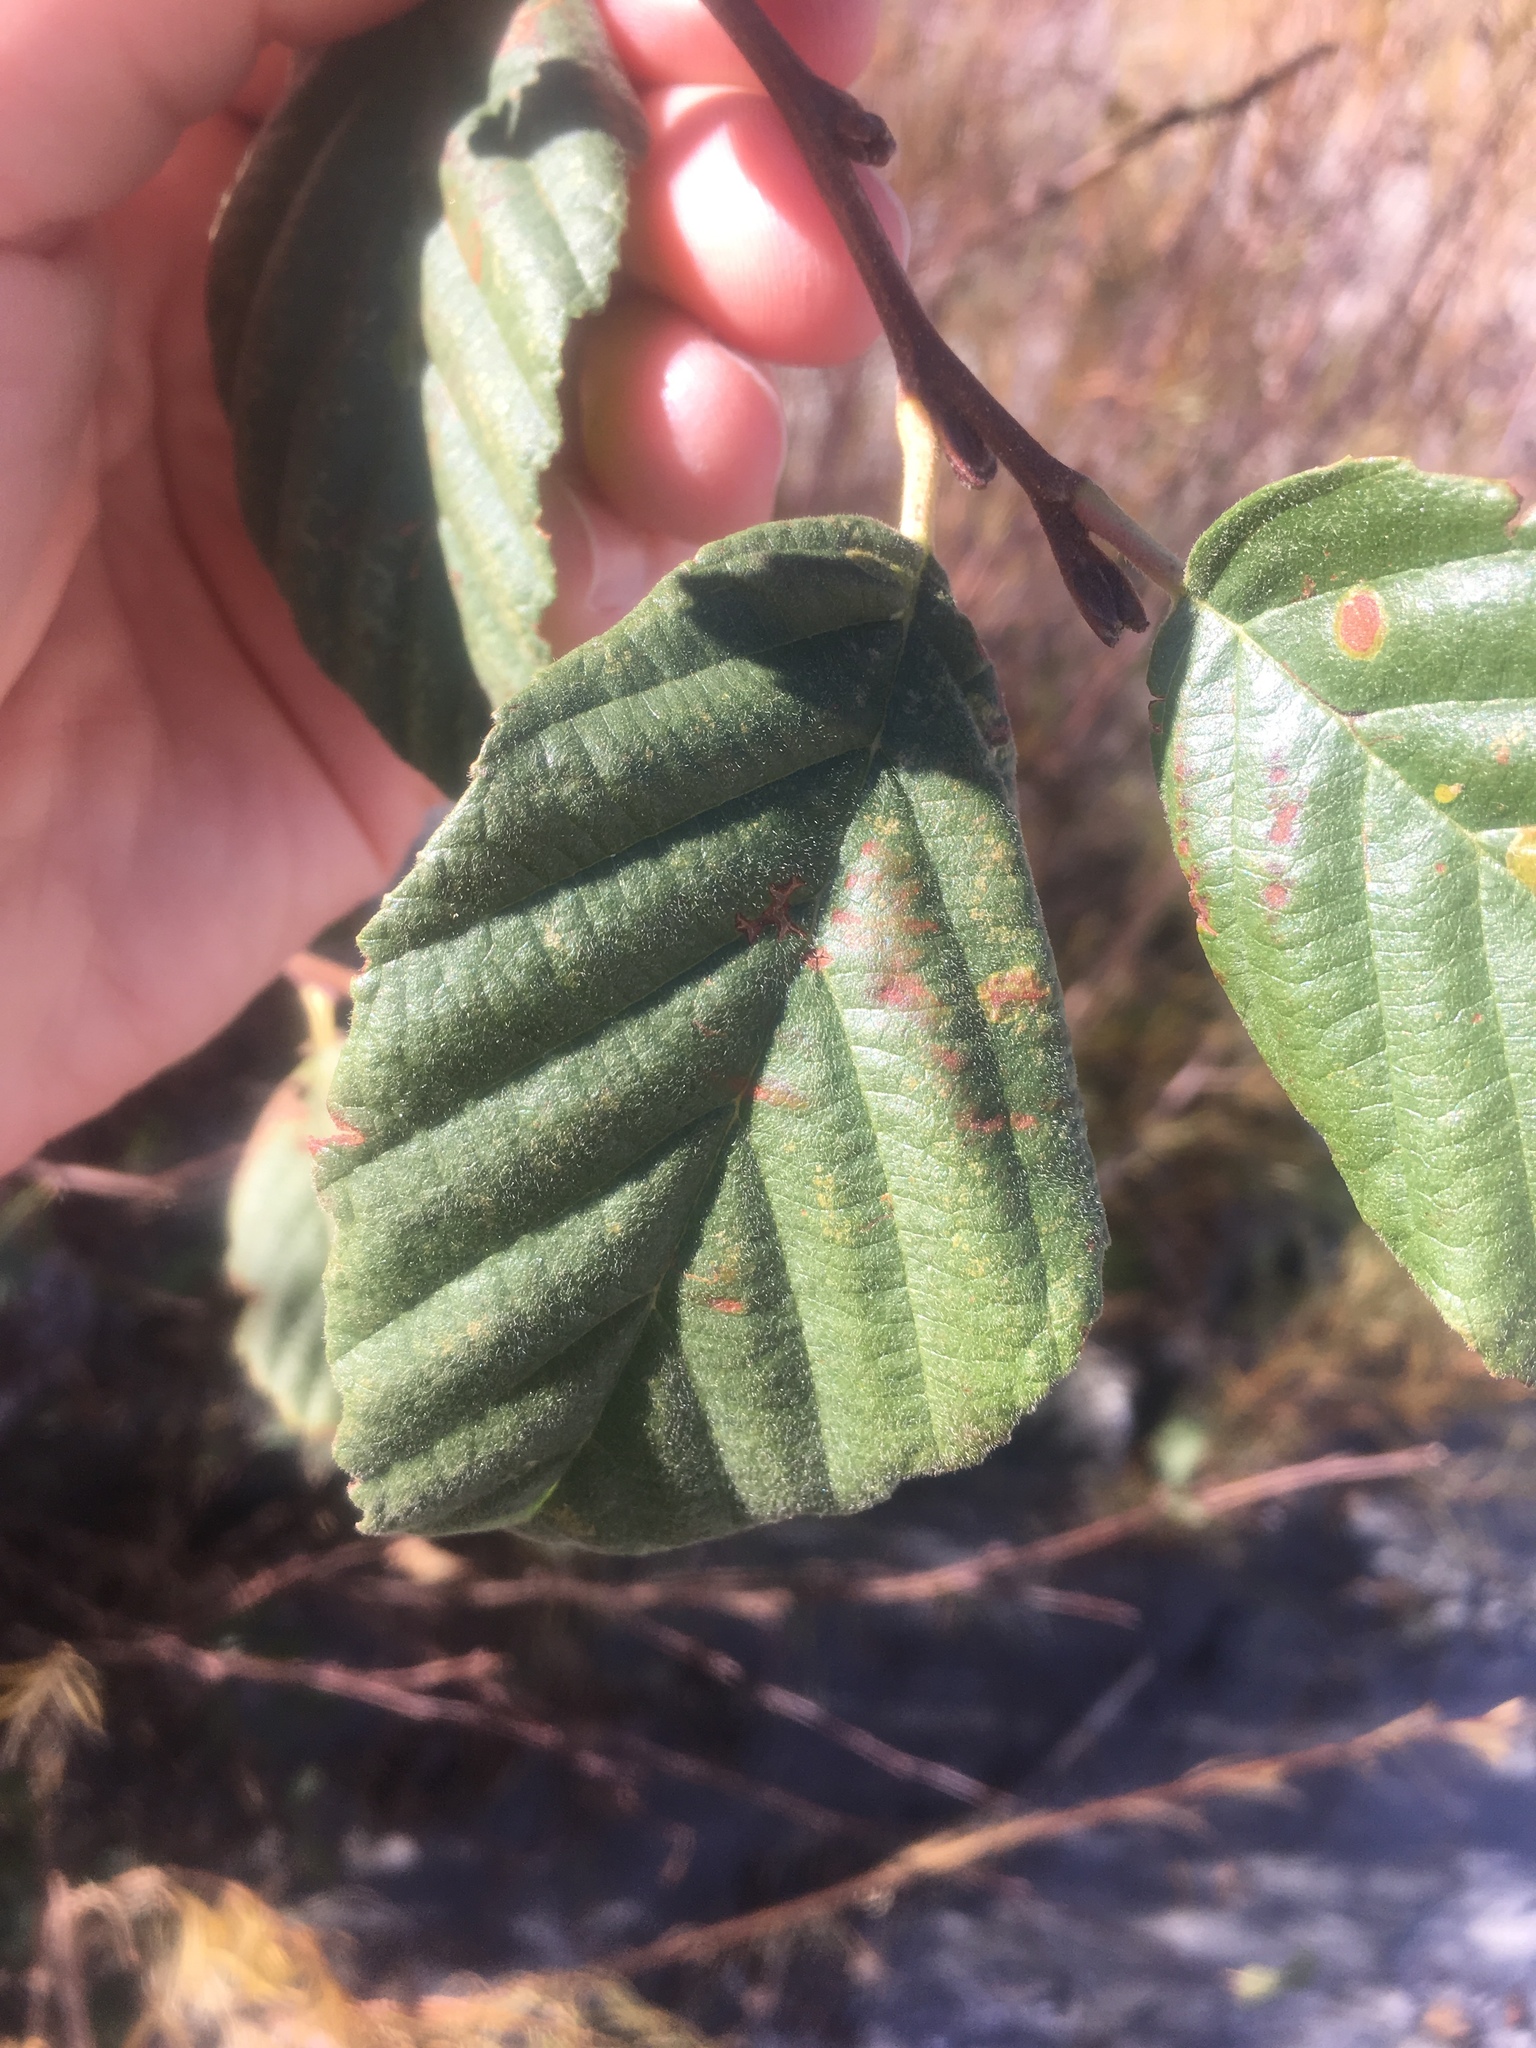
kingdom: Plantae
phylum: Tracheophyta
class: Magnoliopsida
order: Fagales
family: Betulaceae
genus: Alnus
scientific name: Alnus rhombifolia
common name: California alder
